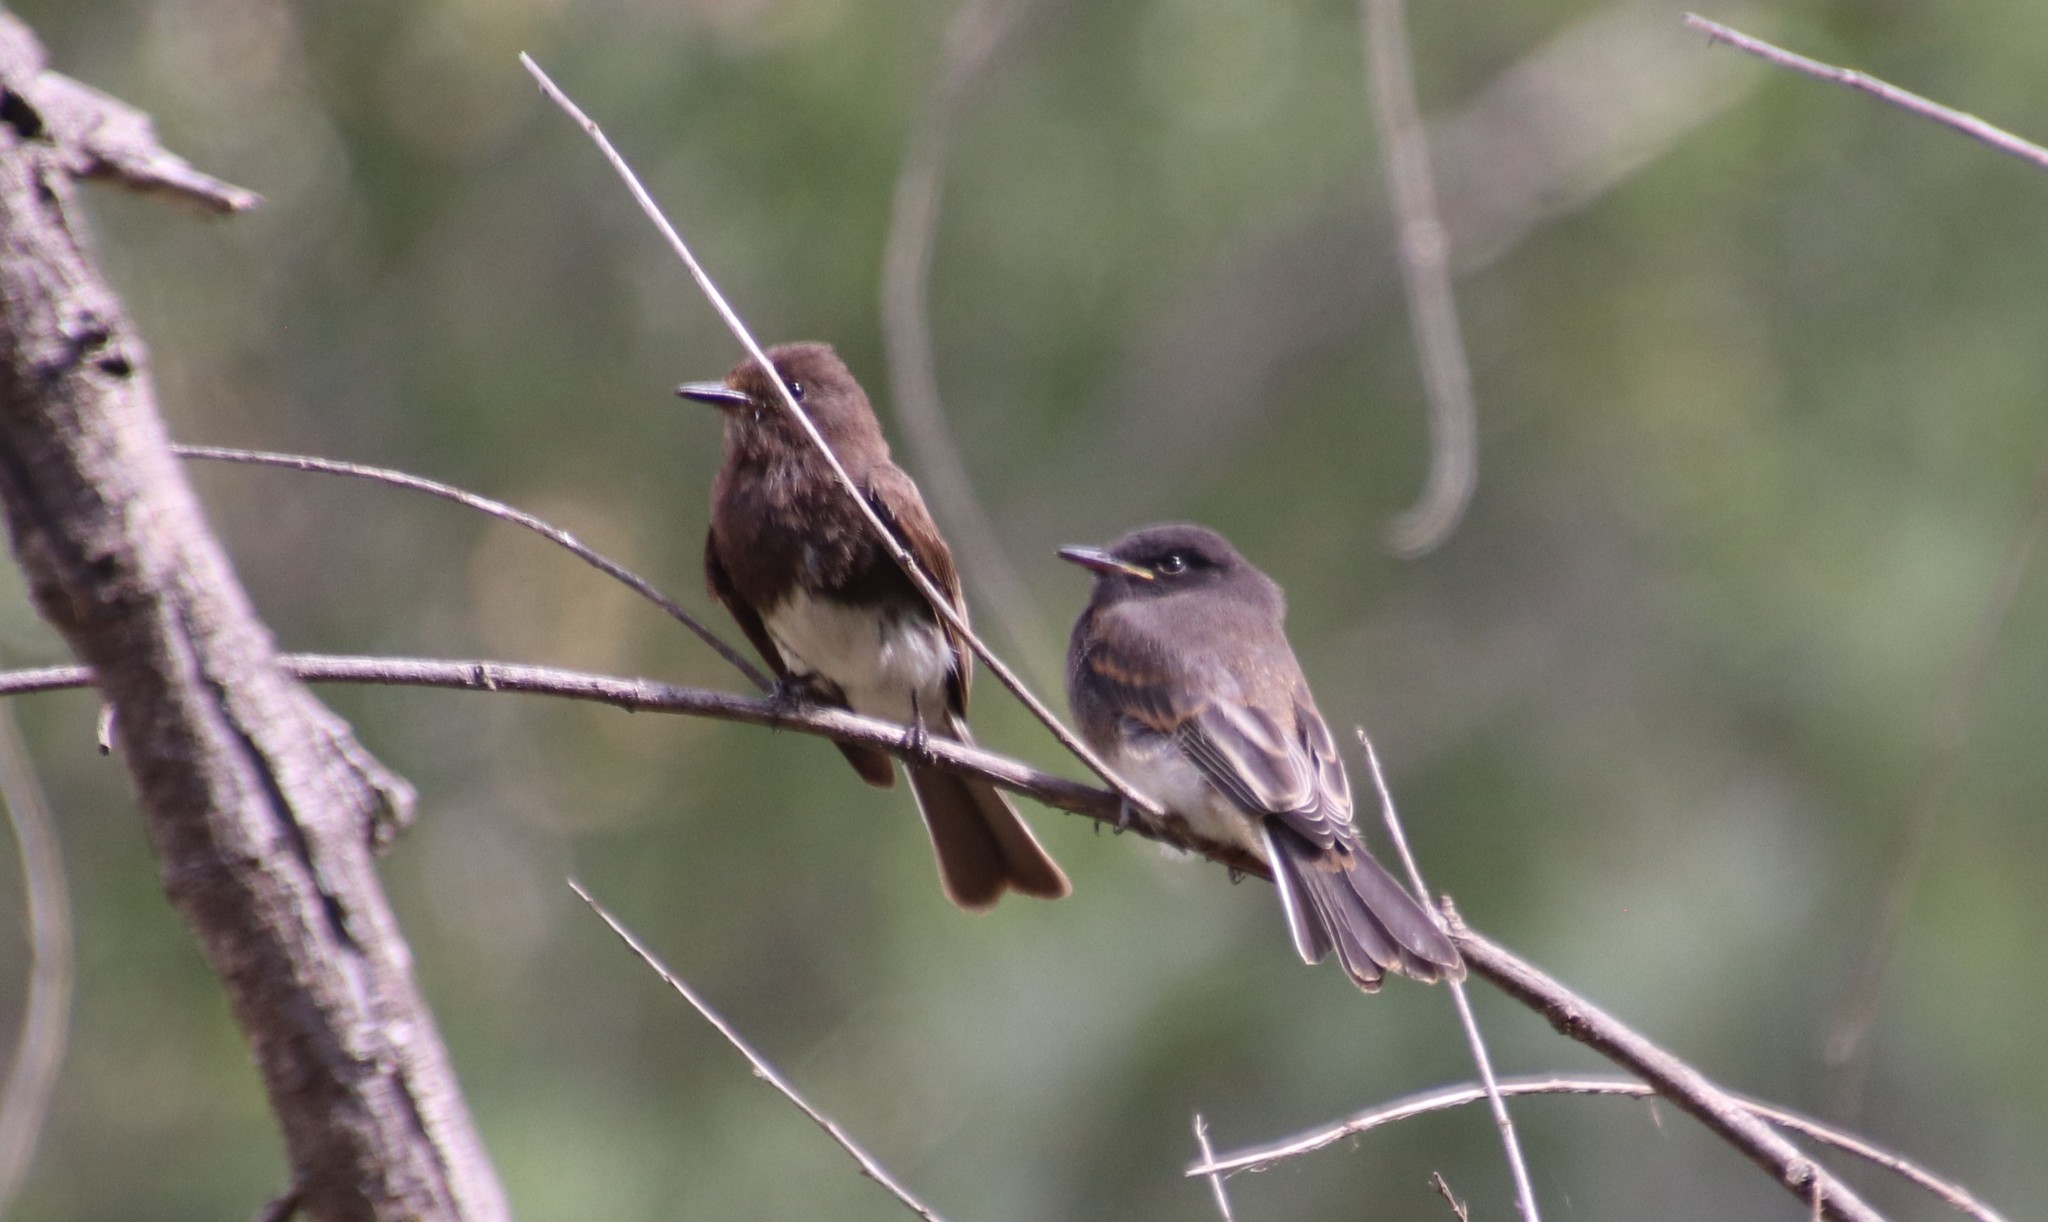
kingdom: Animalia
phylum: Chordata
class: Aves
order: Passeriformes
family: Tyrannidae
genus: Sayornis
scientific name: Sayornis nigricans
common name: Black phoebe
